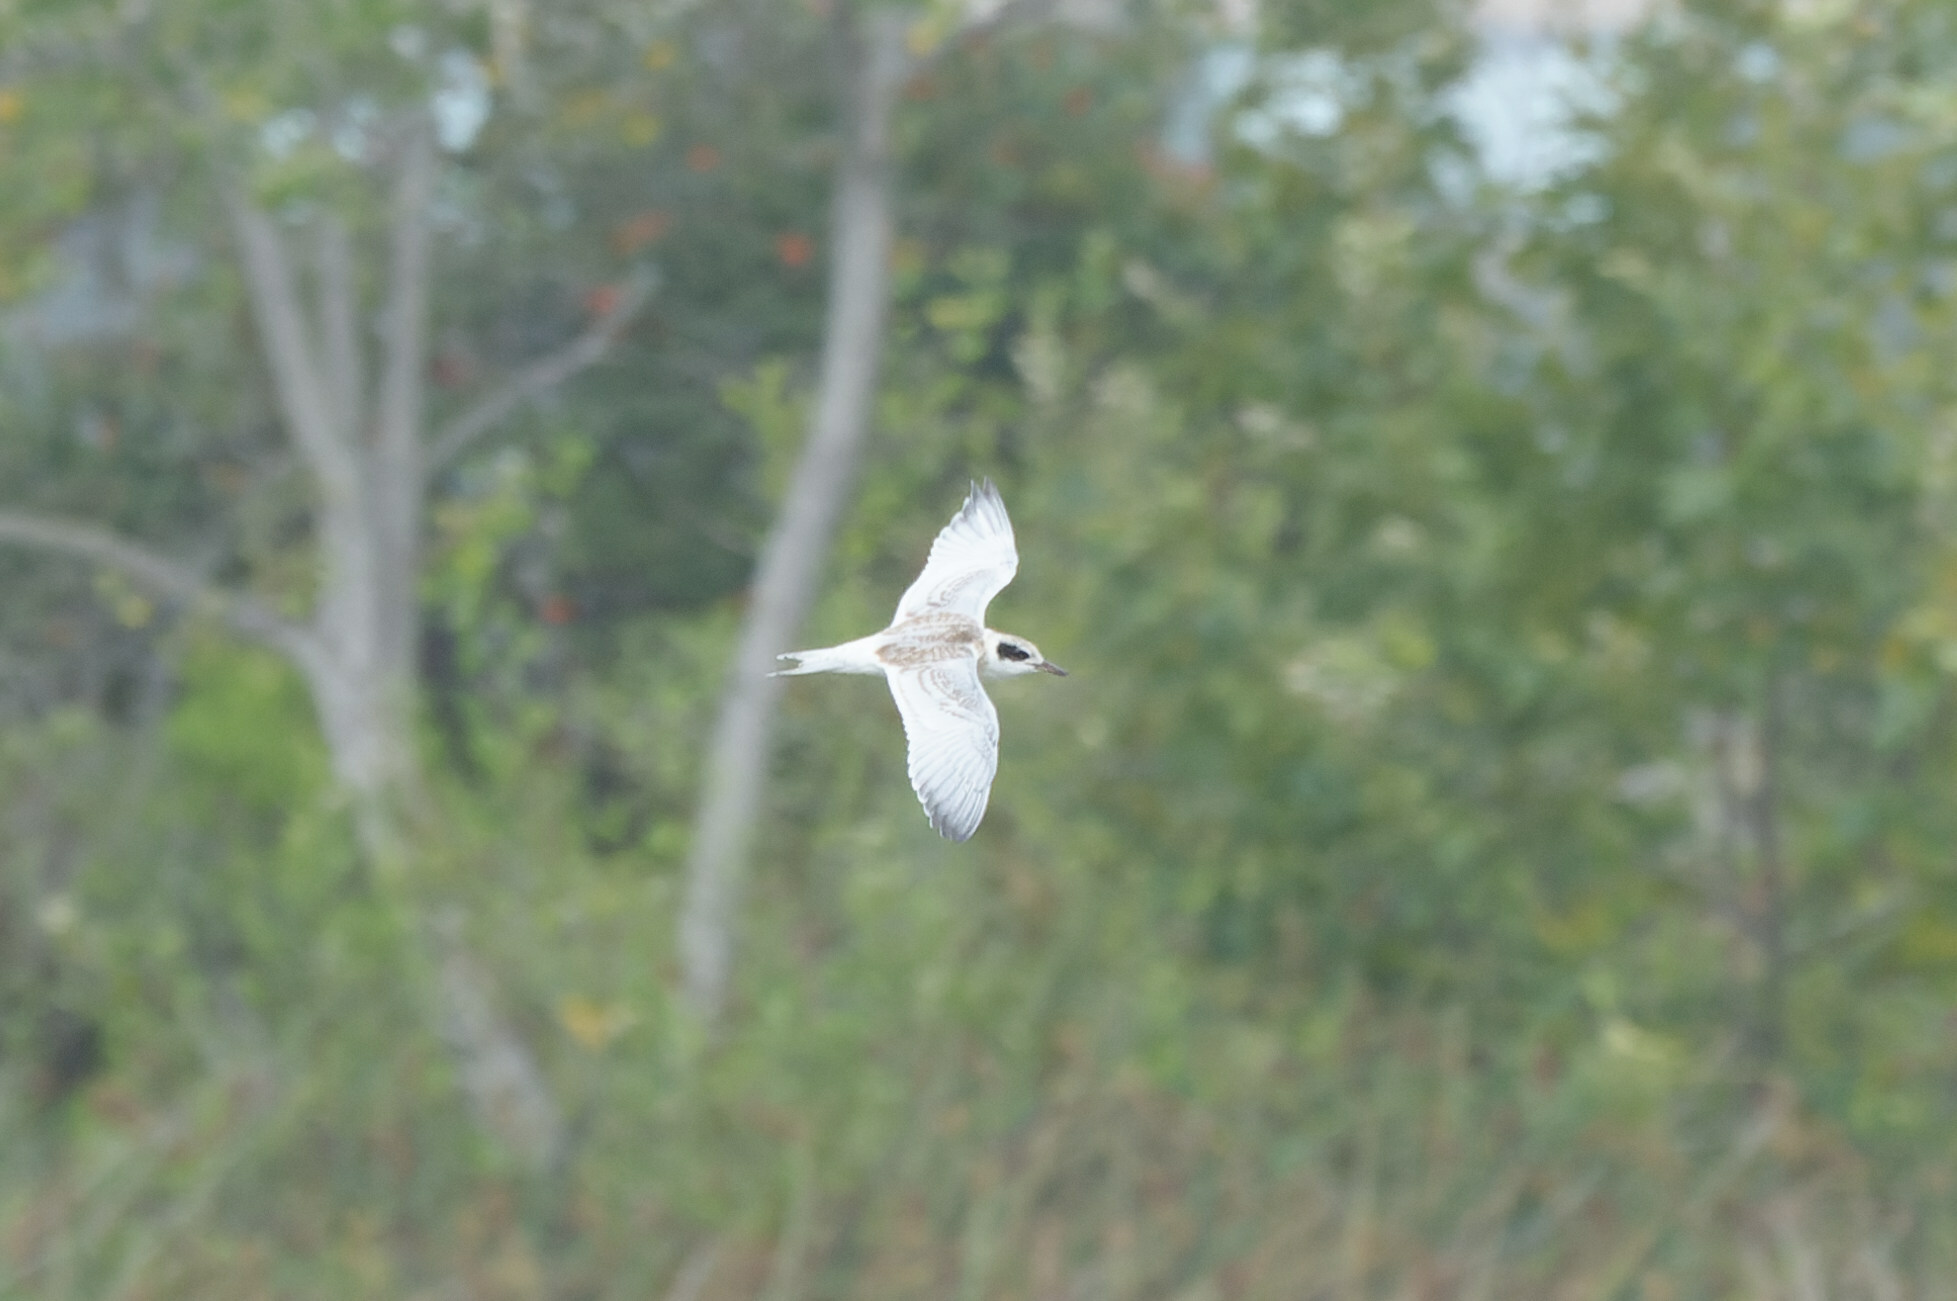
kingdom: Animalia
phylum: Chordata
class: Aves
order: Charadriiformes
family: Laridae
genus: Sterna
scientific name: Sterna forsteri
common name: Forster's tern
